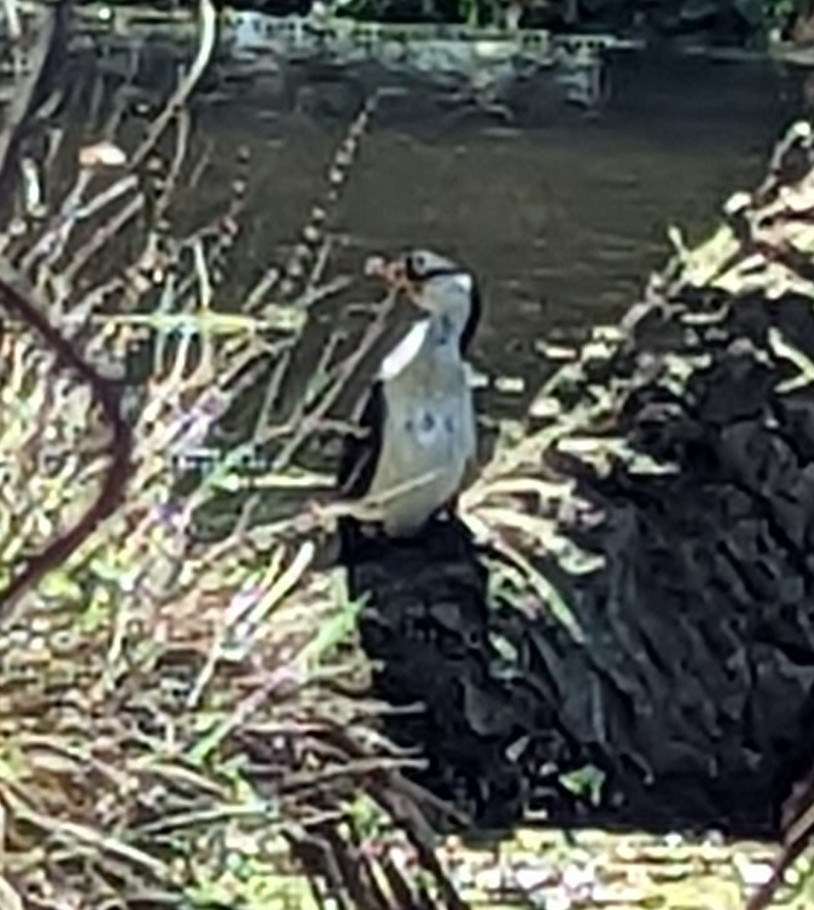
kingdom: Animalia
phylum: Chordata
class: Aves
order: Suliformes
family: Phalacrocoracidae
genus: Microcarbo
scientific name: Microcarbo melanoleucos
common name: Little pied cormorant
